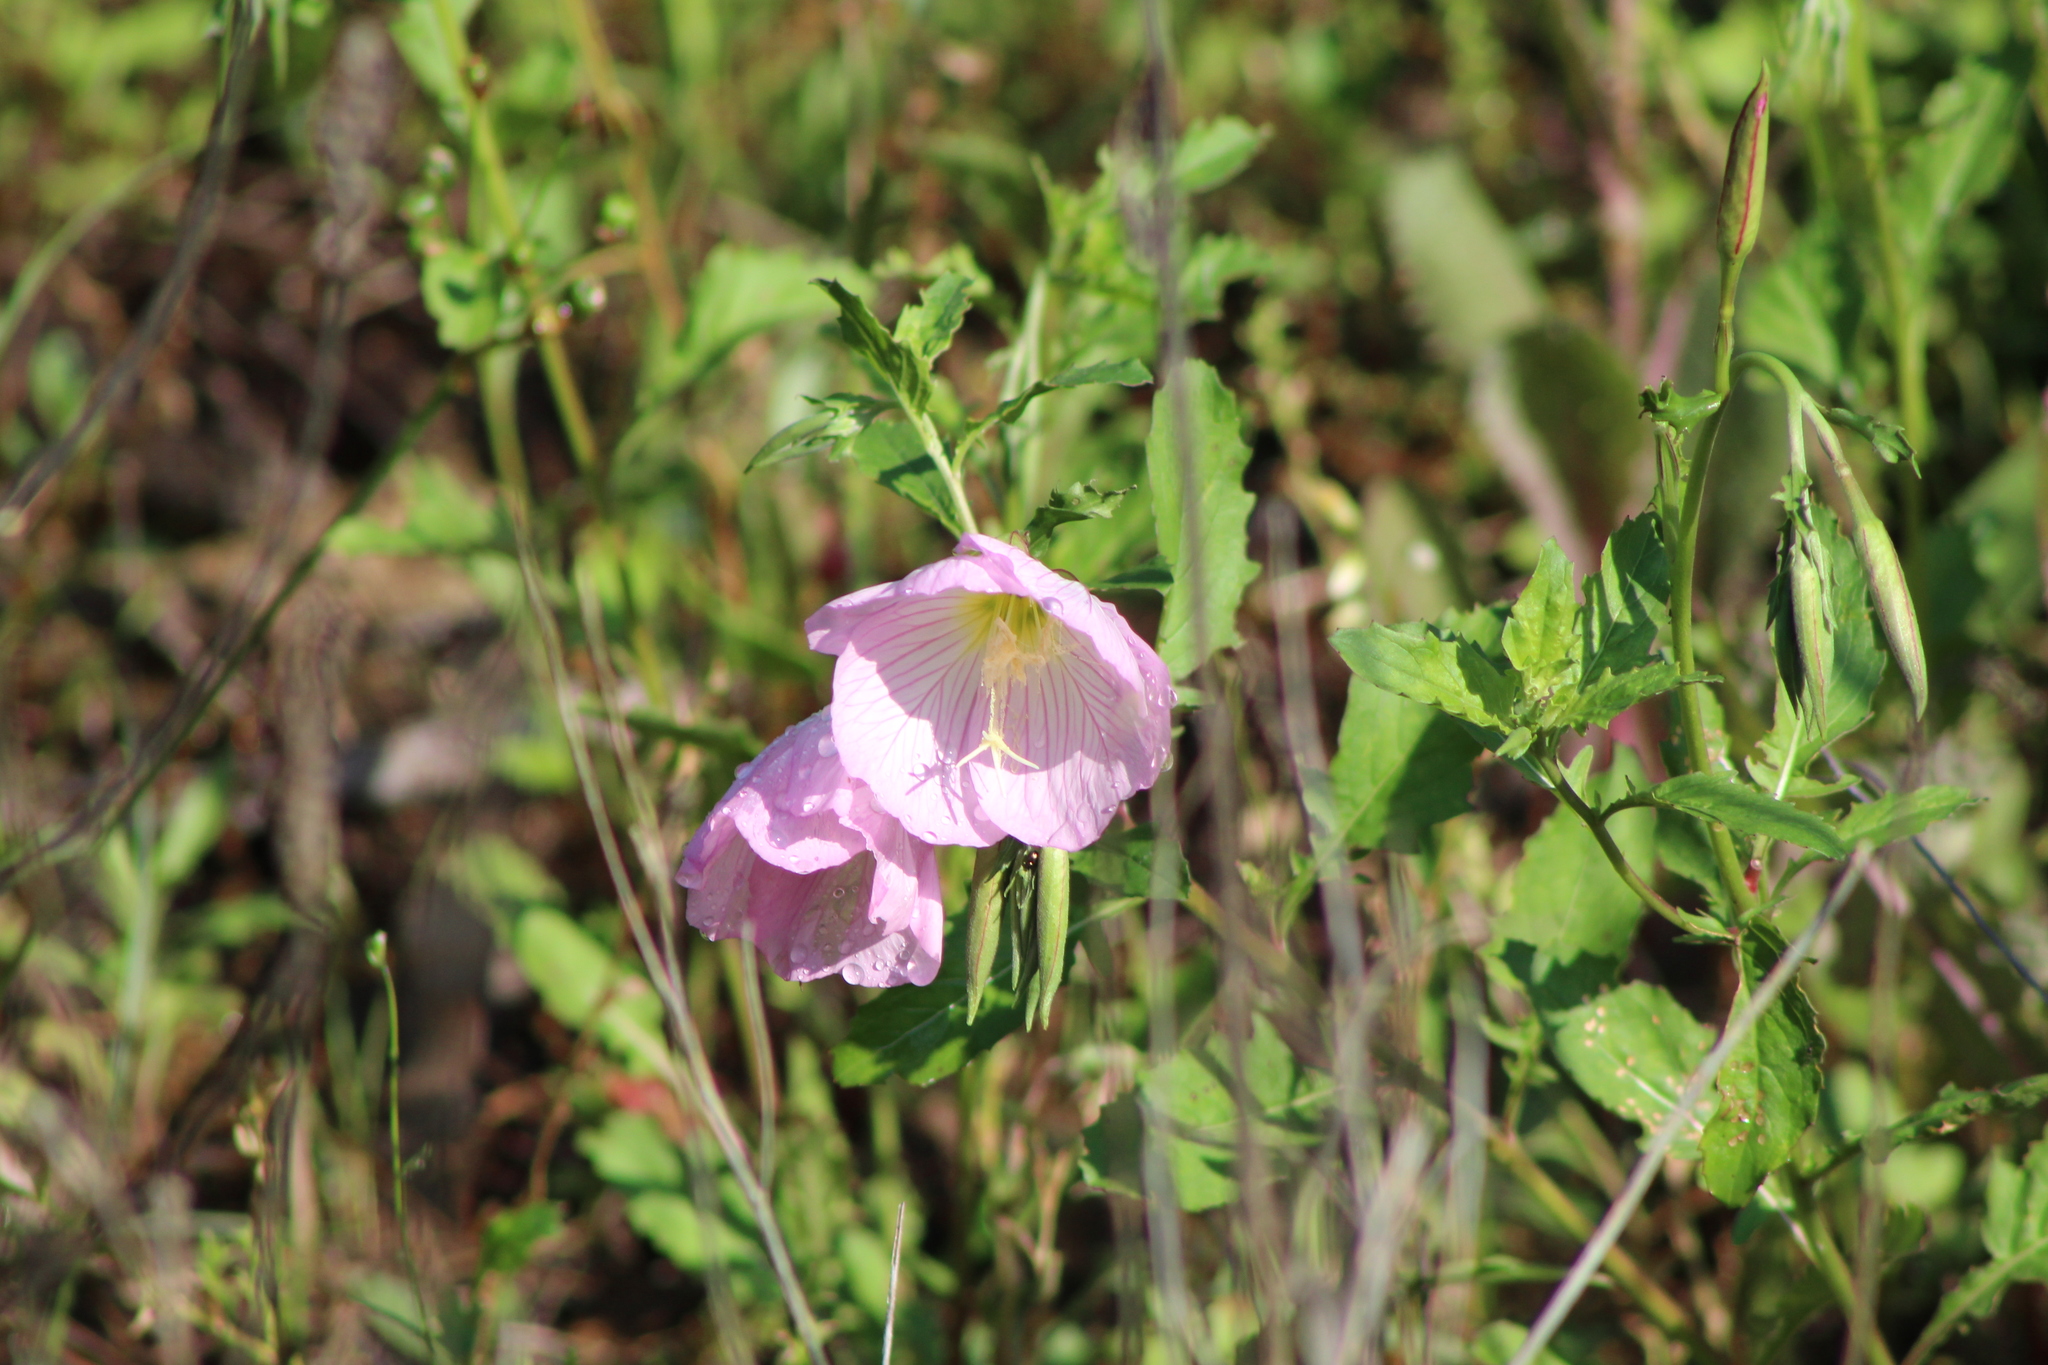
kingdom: Plantae
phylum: Tracheophyta
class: Magnoliopsida
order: Myrtales
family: Onagraceae
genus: Oenothera
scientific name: Oenothera speciosa
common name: White evening-primrose
